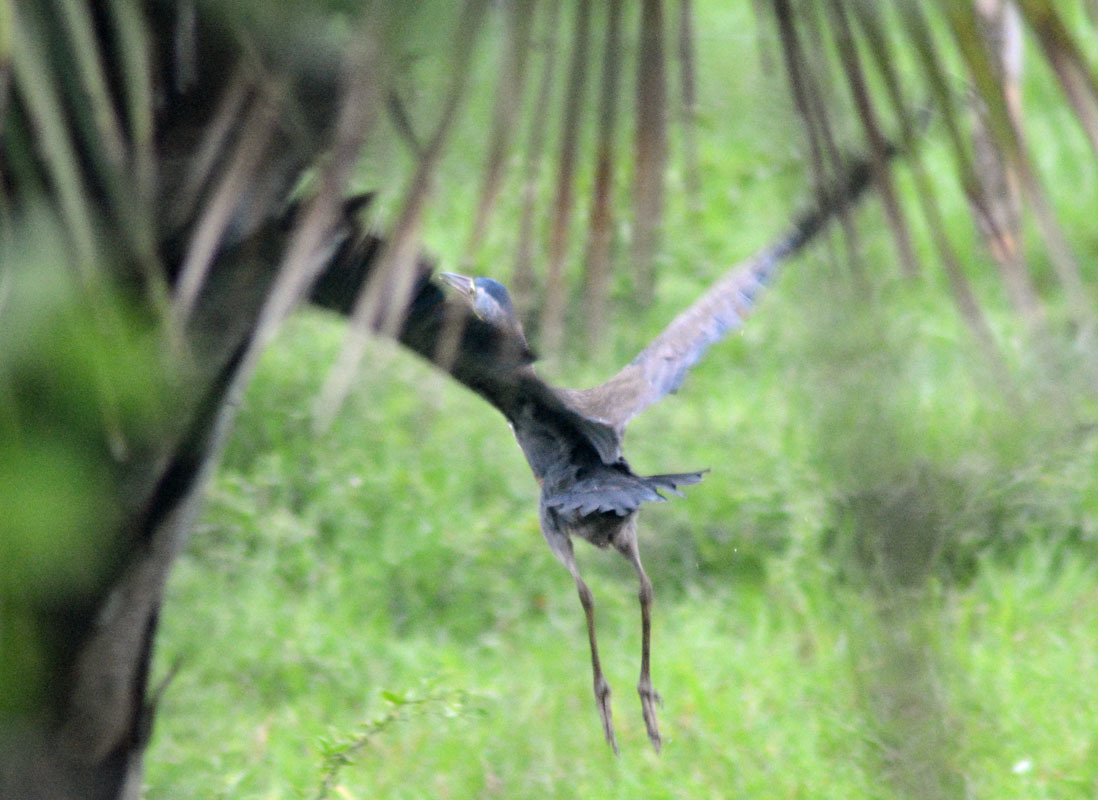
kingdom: Animalia
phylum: Chordata
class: Aves
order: Pelecaniformes
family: Ardeidae
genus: Ardea
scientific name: Ardea herodias
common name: Great blue heron
